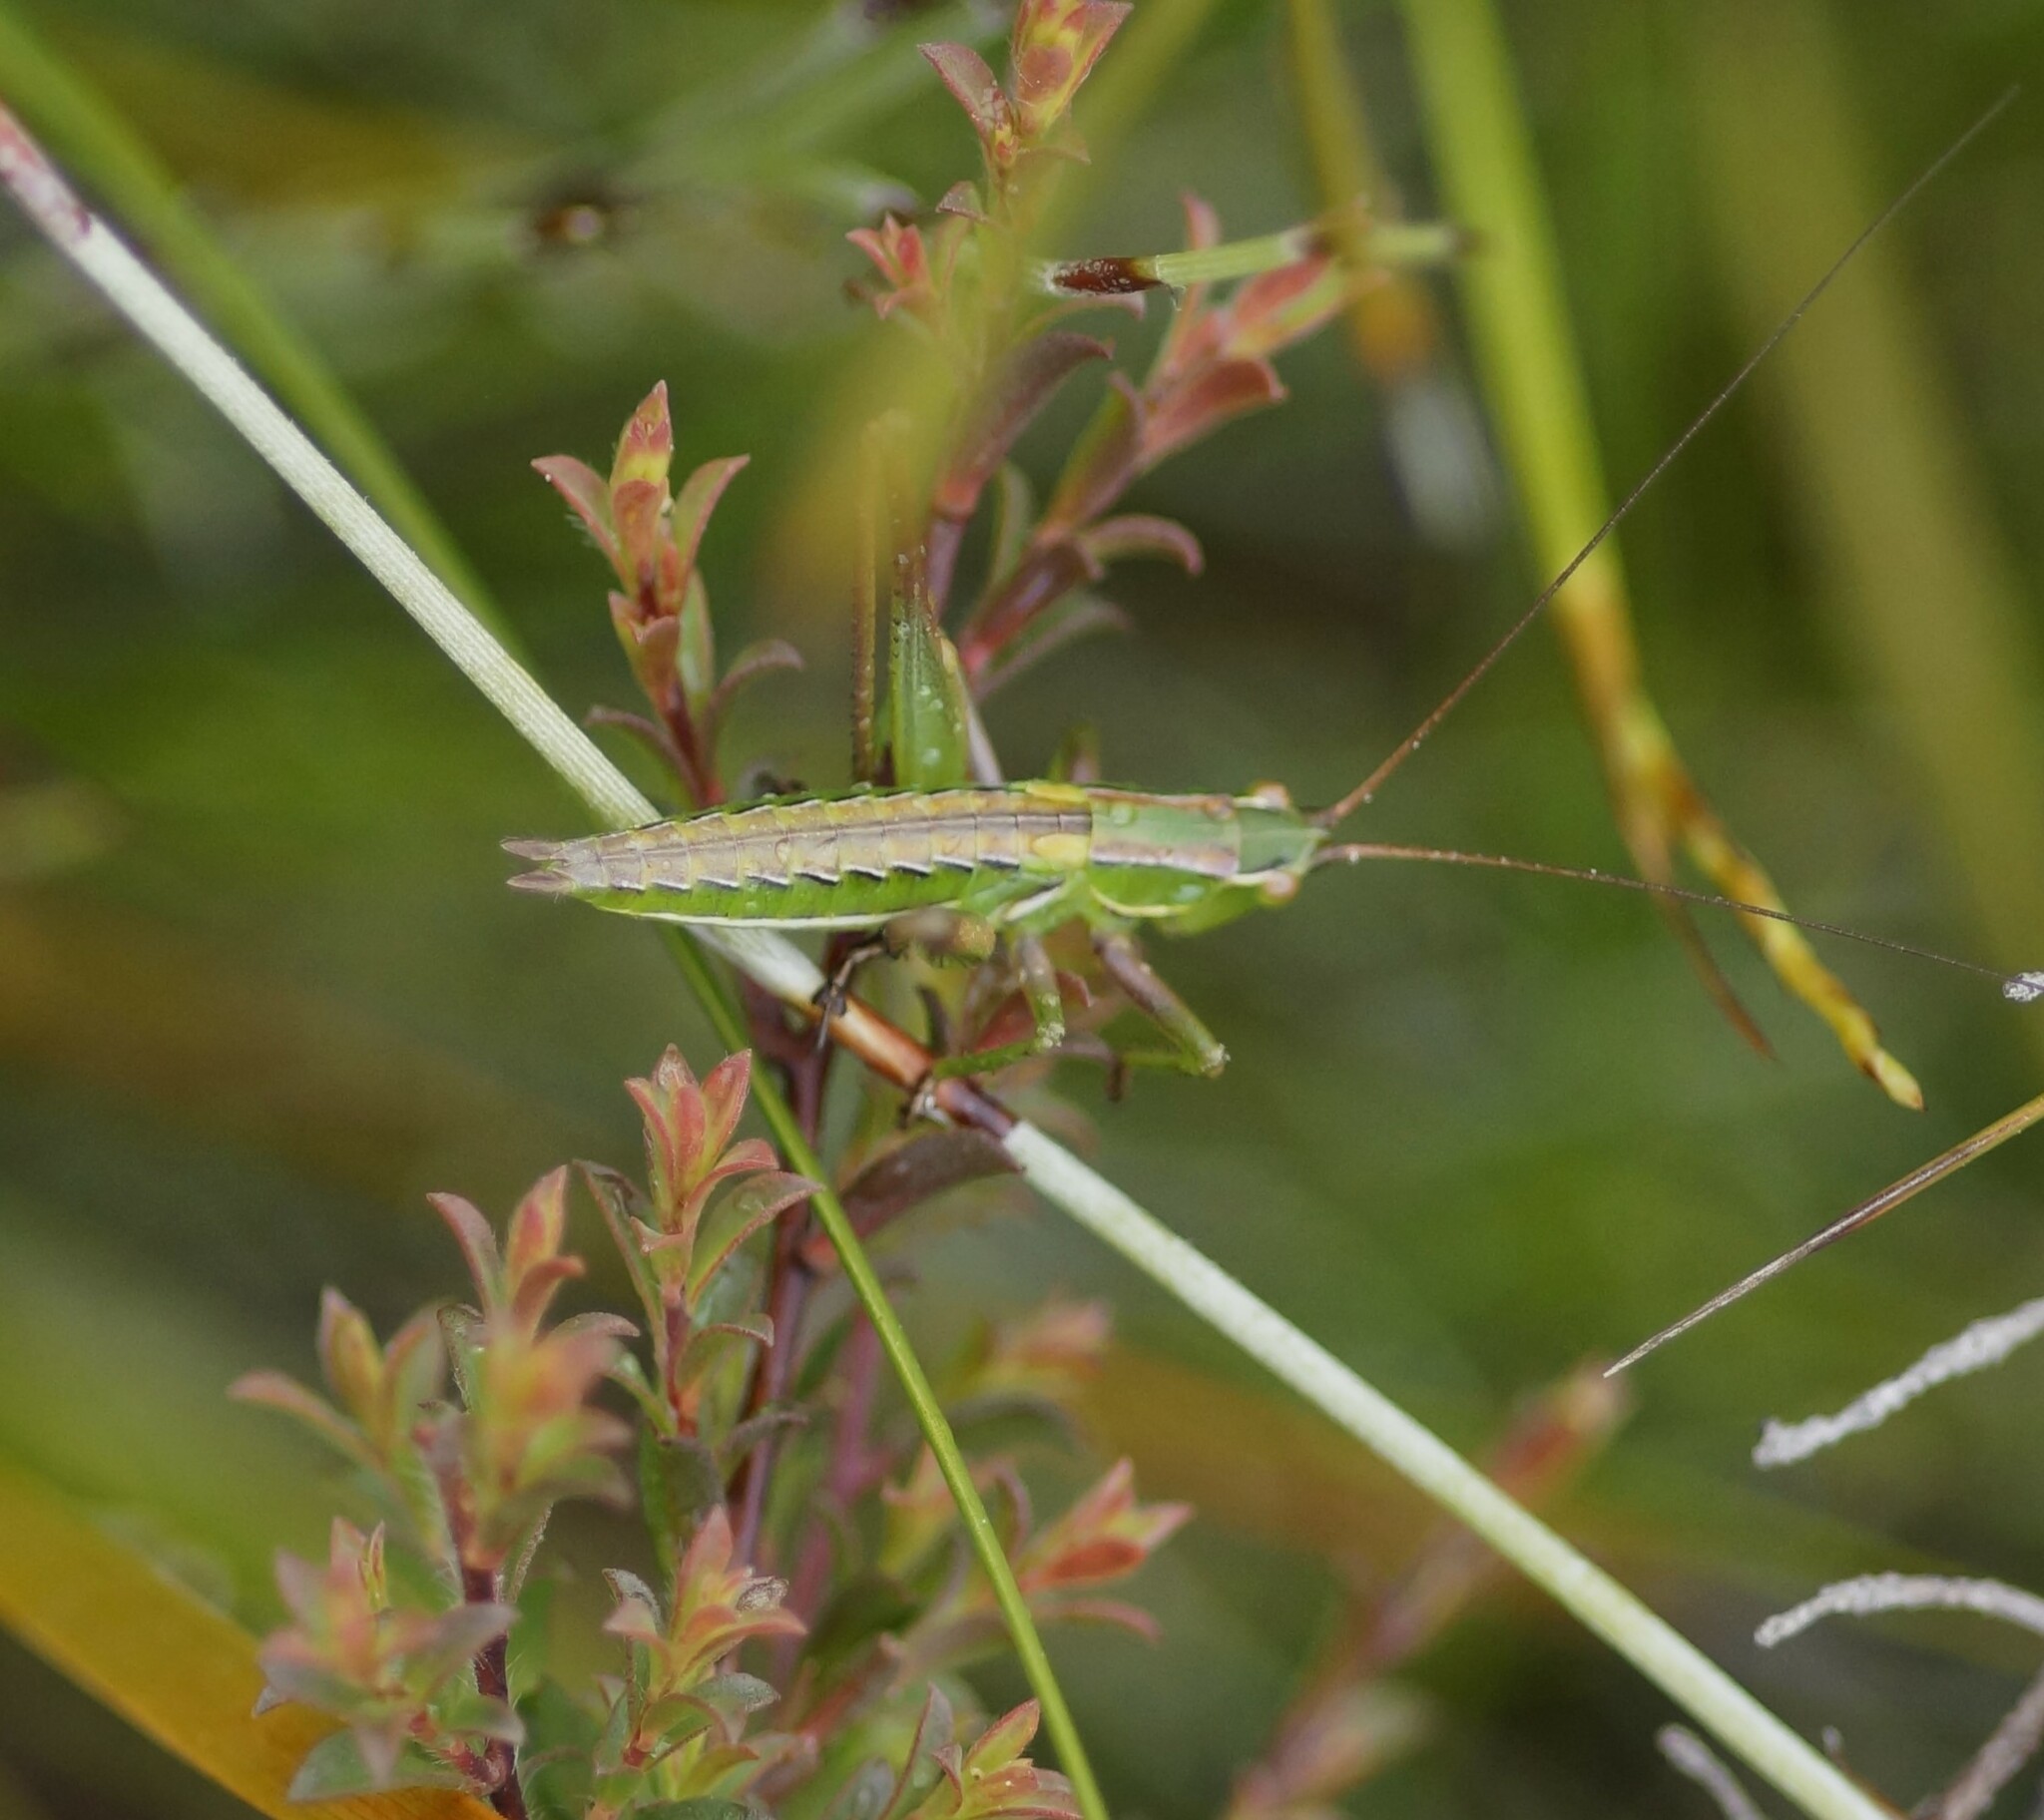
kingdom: Animalia
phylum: Arthropoda
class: Insecta
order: Orthoptera
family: Tettigoniidae
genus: Metaballus
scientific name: Metaballus sagaeformis
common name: Adelaide marauding katydid
